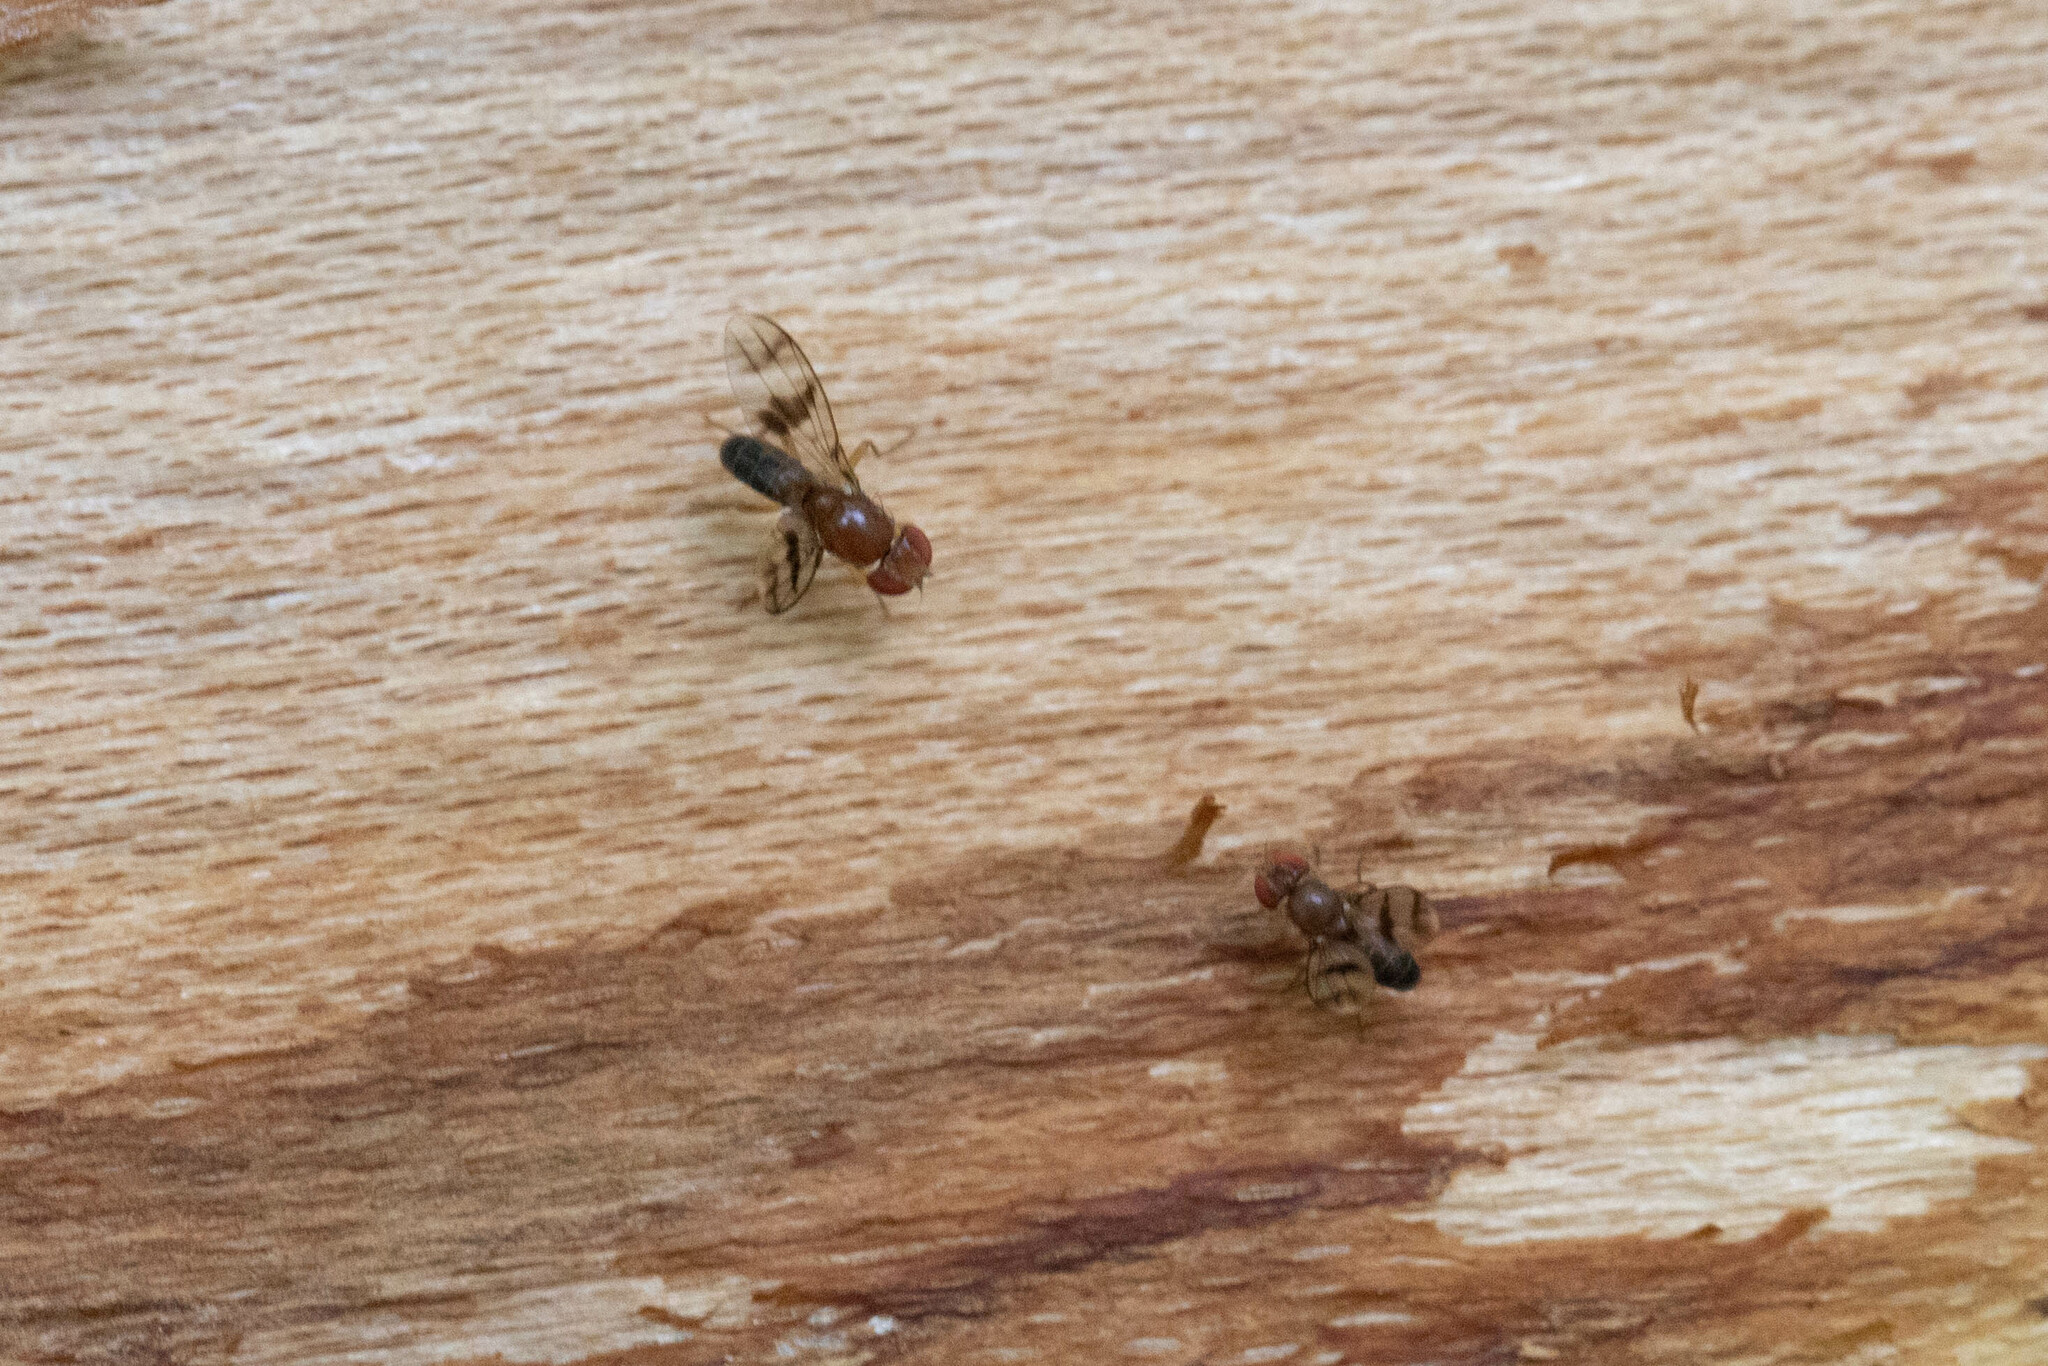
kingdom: Animalia
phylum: Arthropoda
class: Insecta
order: Diptera
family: Drosophilidae
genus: Chymomyza
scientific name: Chymomyza amoena
